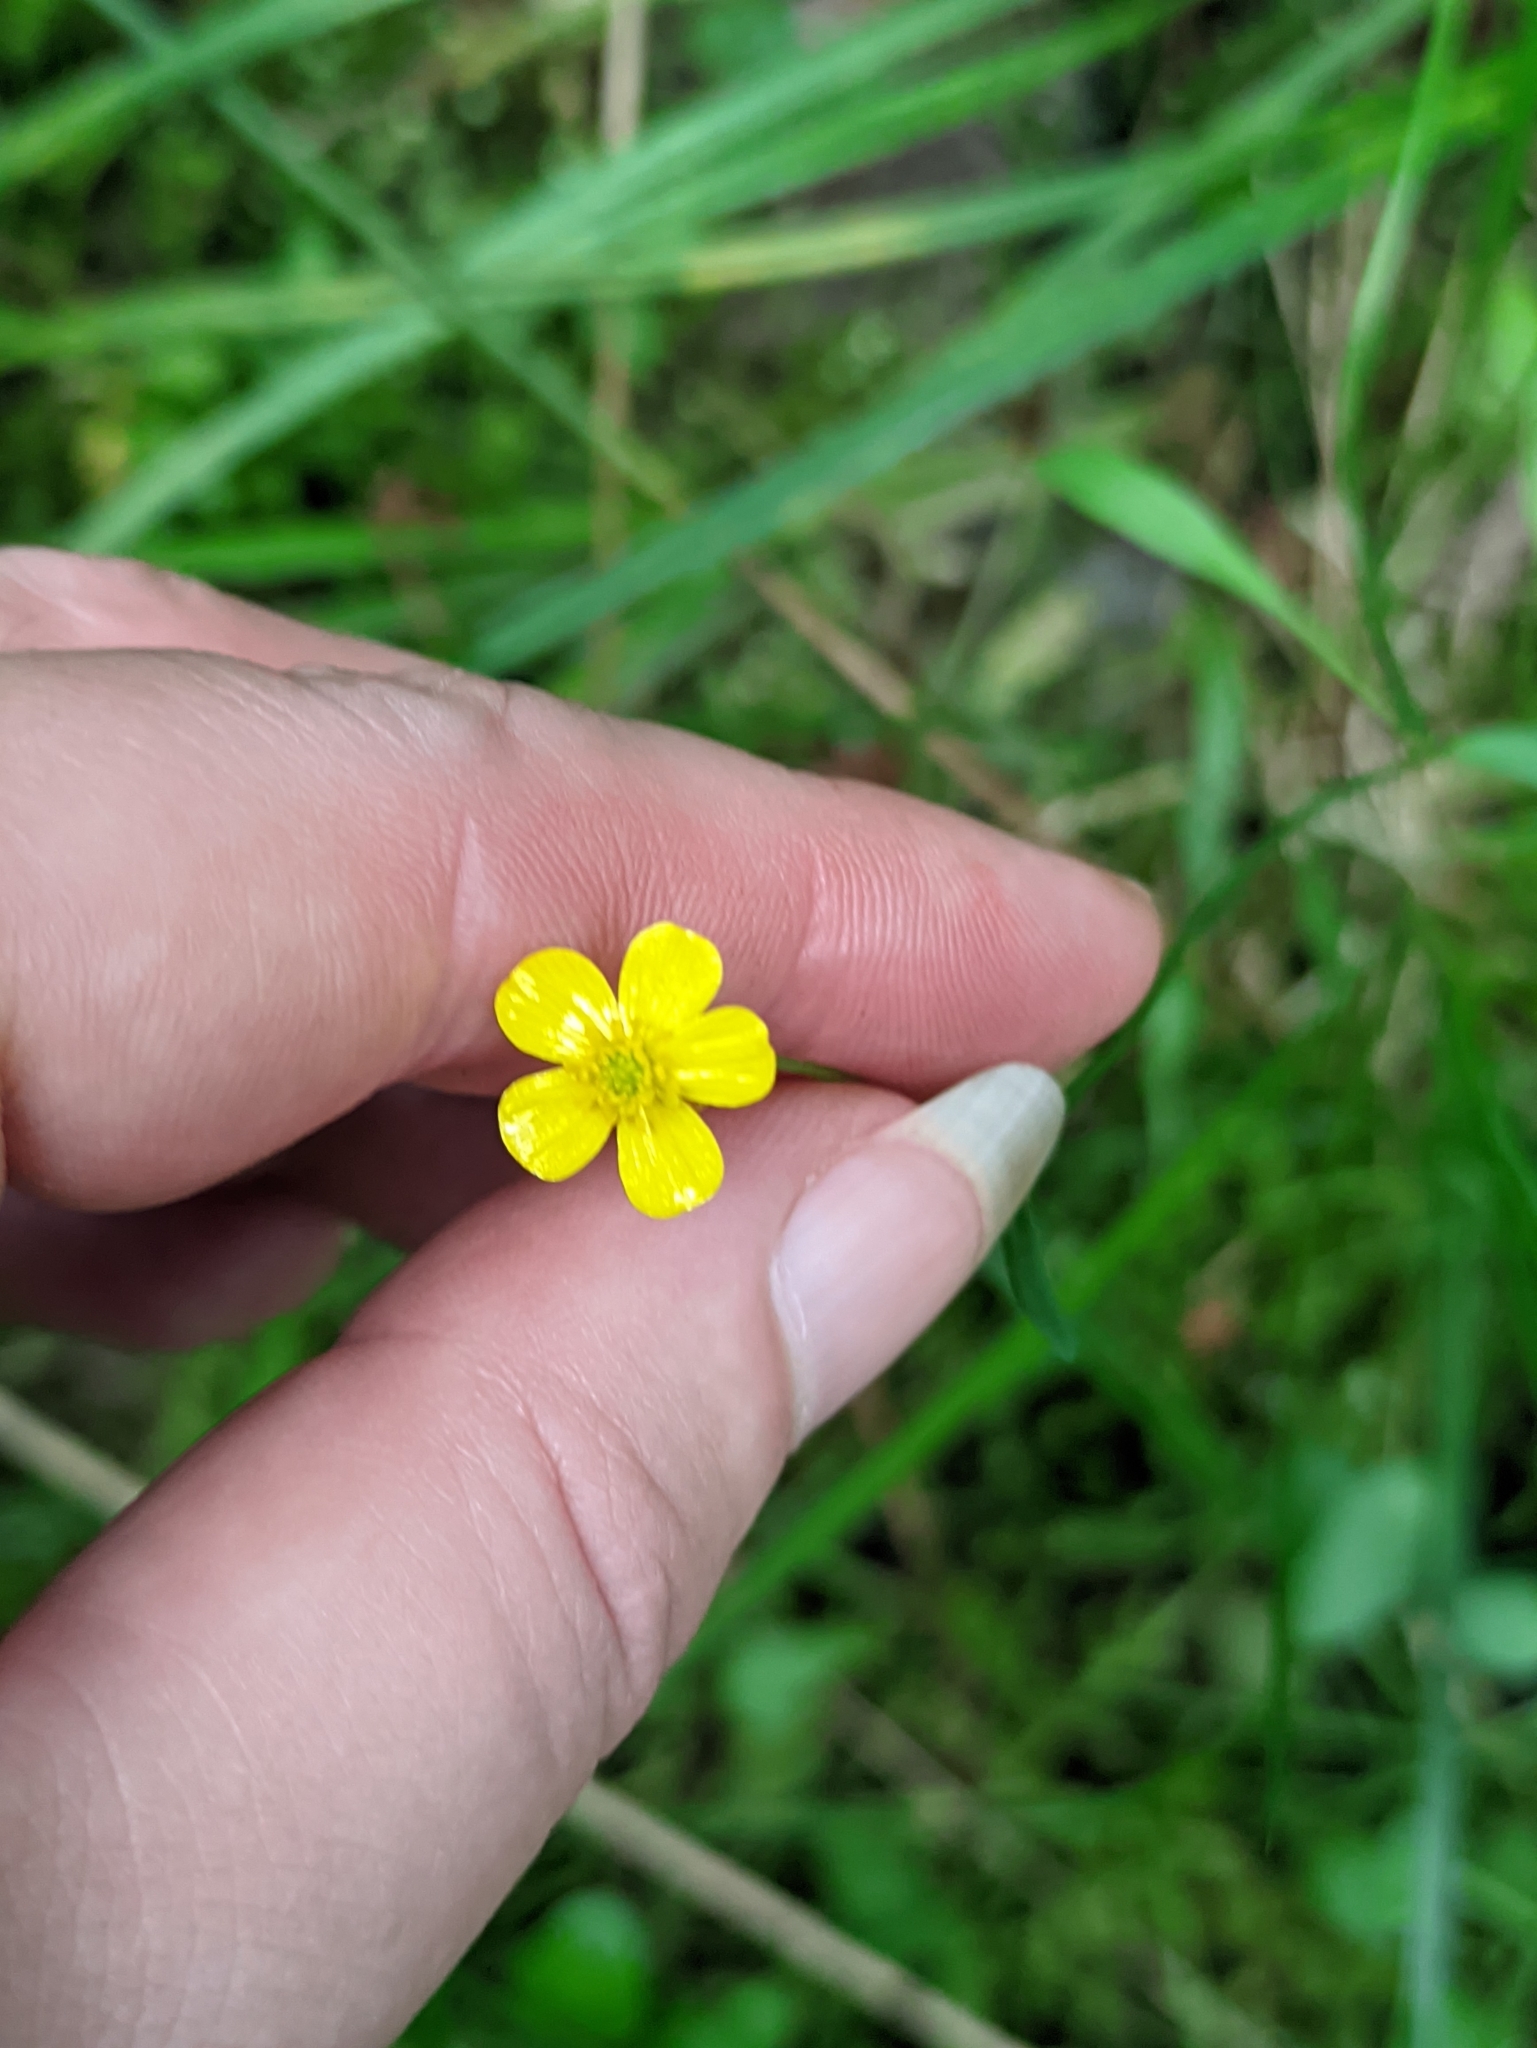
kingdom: Plantae
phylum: Tracheophyta
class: Magnoliopsida
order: Ranunculales
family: Ranunculaceae
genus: Ranunculus
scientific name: Ranunculus flammula
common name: Lesser spearwort
